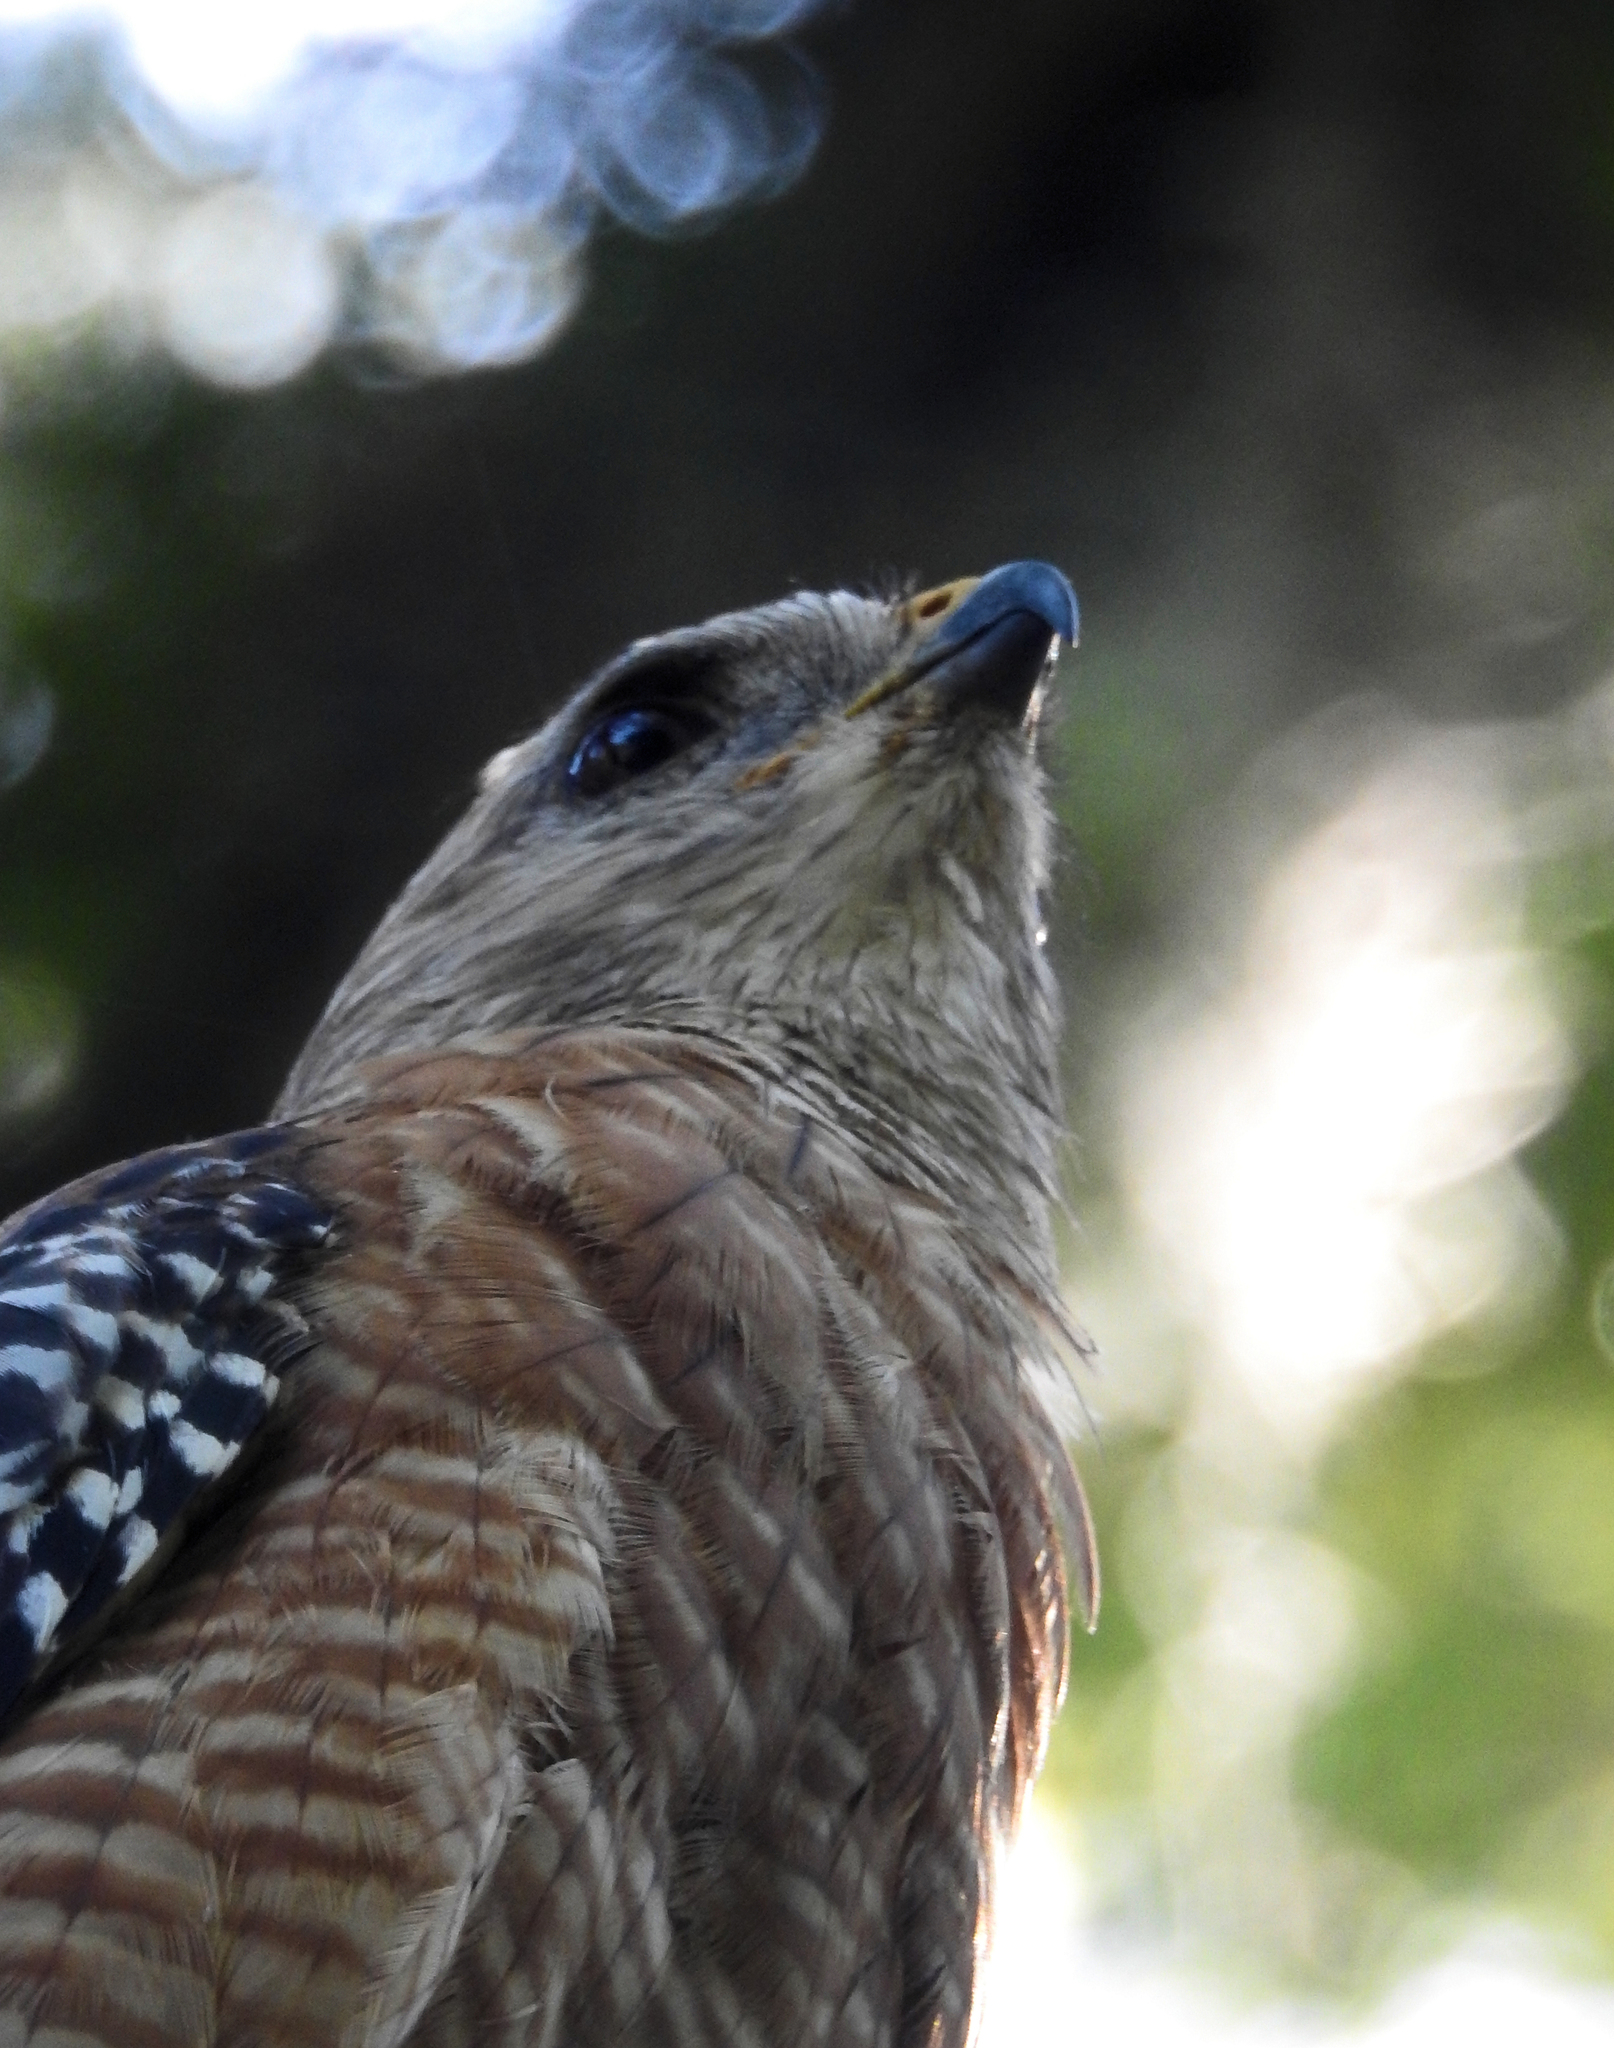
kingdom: Animalia
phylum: Chordata
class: Aves
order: Accipitriformes
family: Accipitridae
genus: Buteo
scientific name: Buteo lineatus
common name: Red-shouldered hawk
